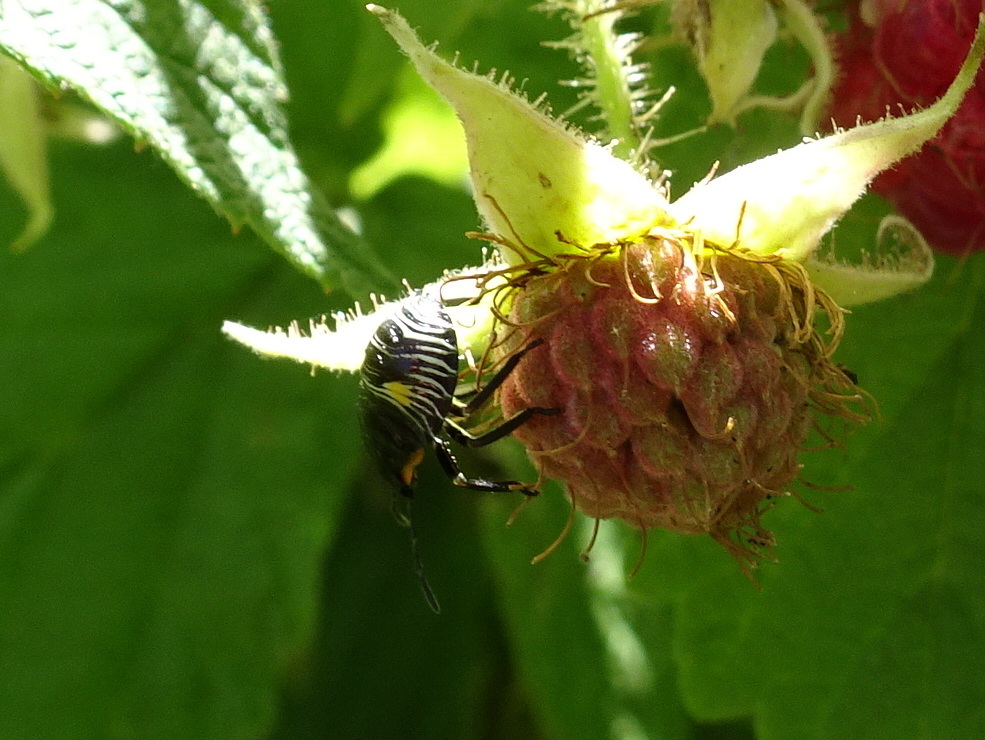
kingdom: Animalia
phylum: Arthropoda
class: Insecta
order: Hemiptera
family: Pentatomidae
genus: Chinavia
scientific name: Chinavia hilaris
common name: Green stink bug
